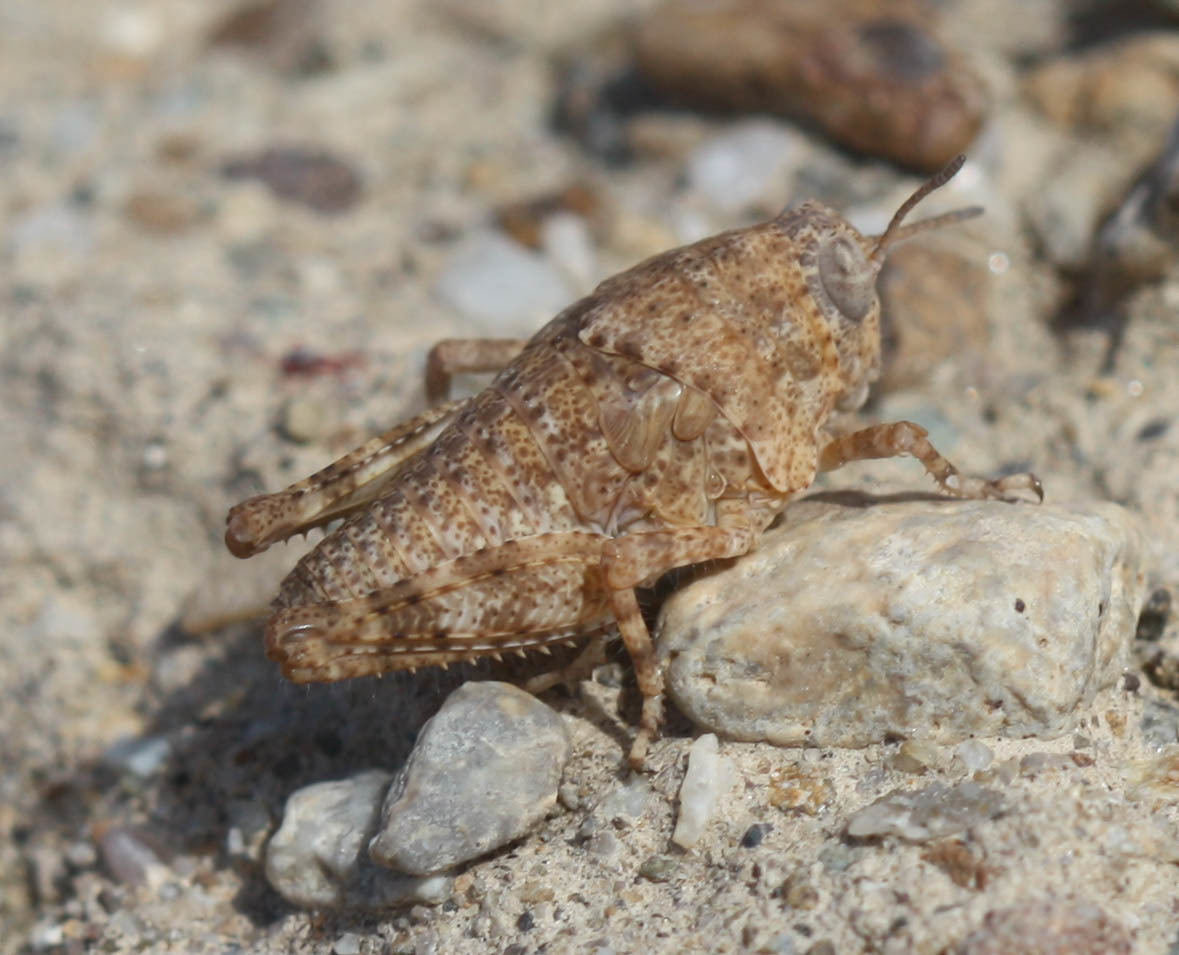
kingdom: Animalia
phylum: Arthropoda
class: Insecta
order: Orthoptera
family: Romaleidae
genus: Tytthotyle
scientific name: Tytthotyle maculata
